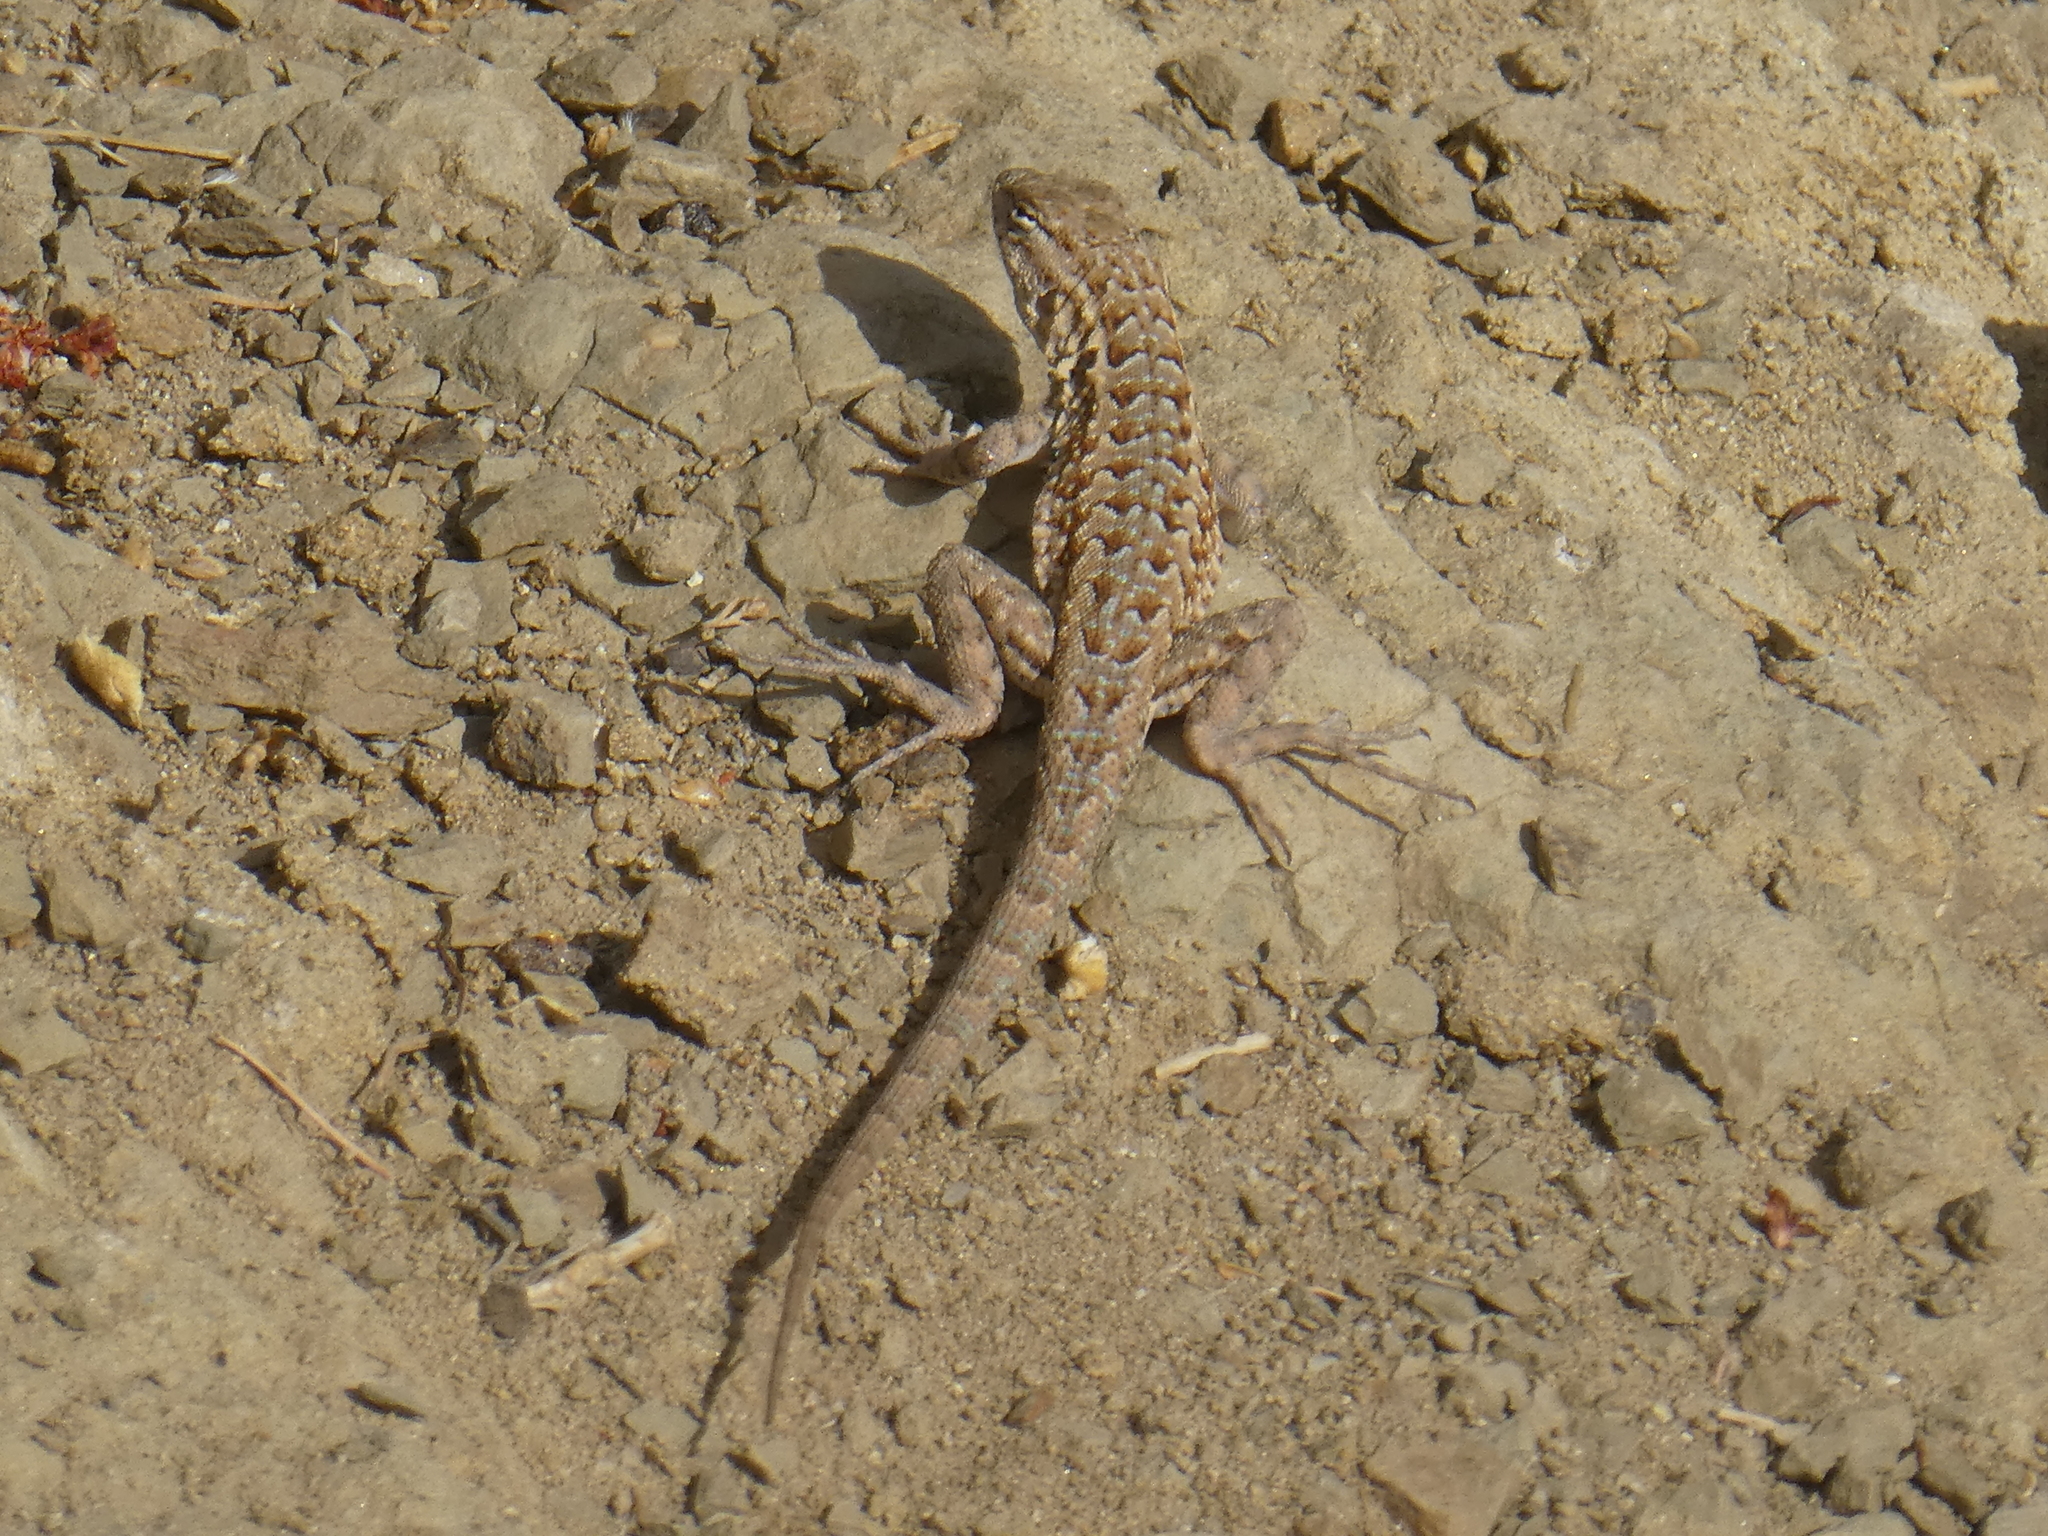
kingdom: Animalia
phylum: Chordata
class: Squamata
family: Phrynosomatidae
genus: Uta
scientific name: Uta stansburiana
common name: Side-blotched lizard
